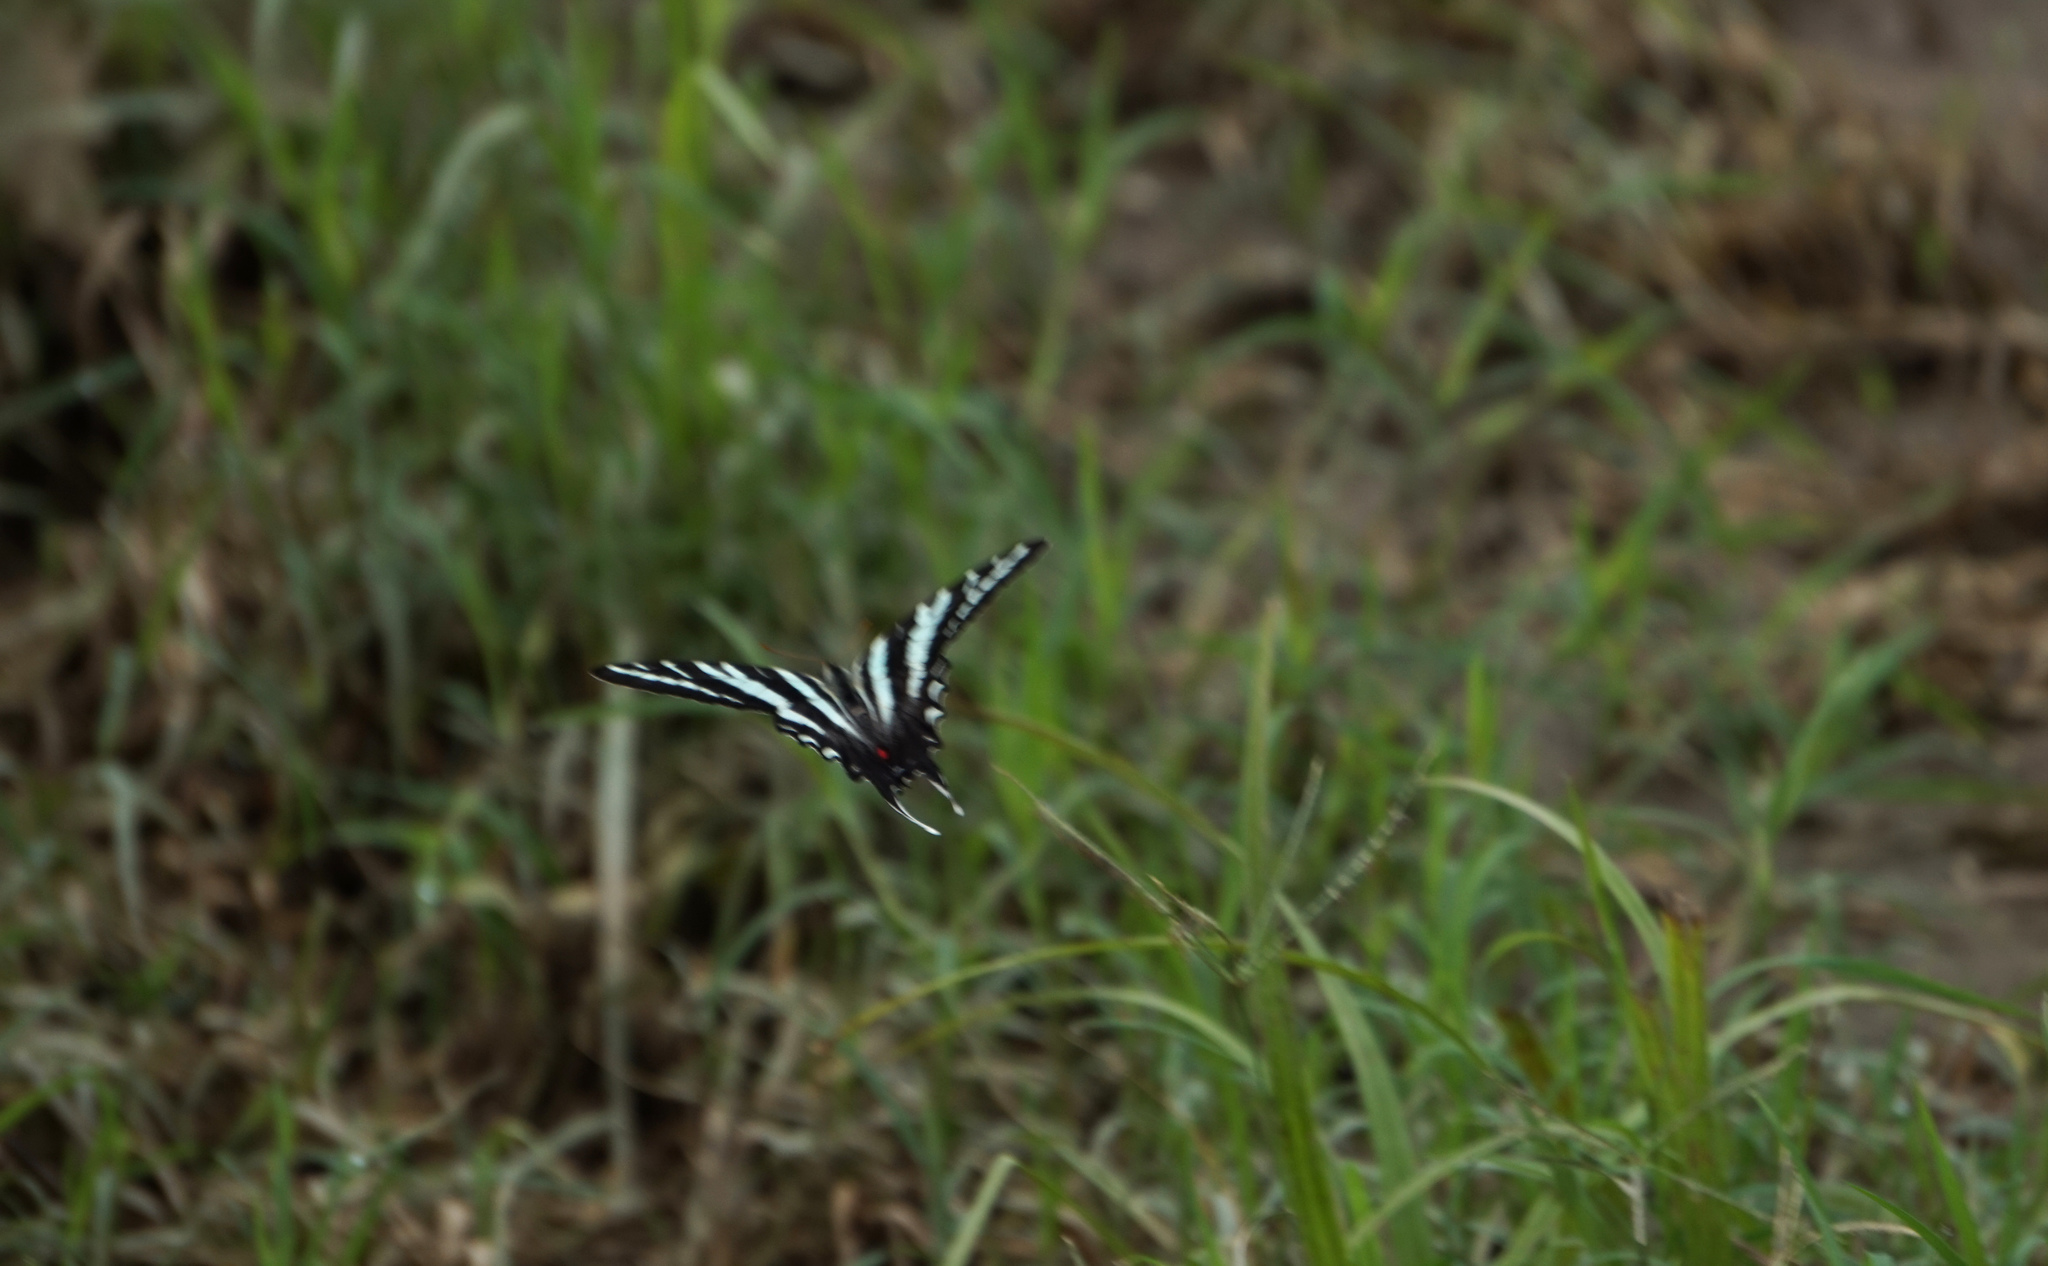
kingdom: Animalia
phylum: Arthropoda
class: Insecta
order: Lepidoptera
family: Papilionidae
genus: Protographium
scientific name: Protographium marcellus
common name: Zebra swallowtail
